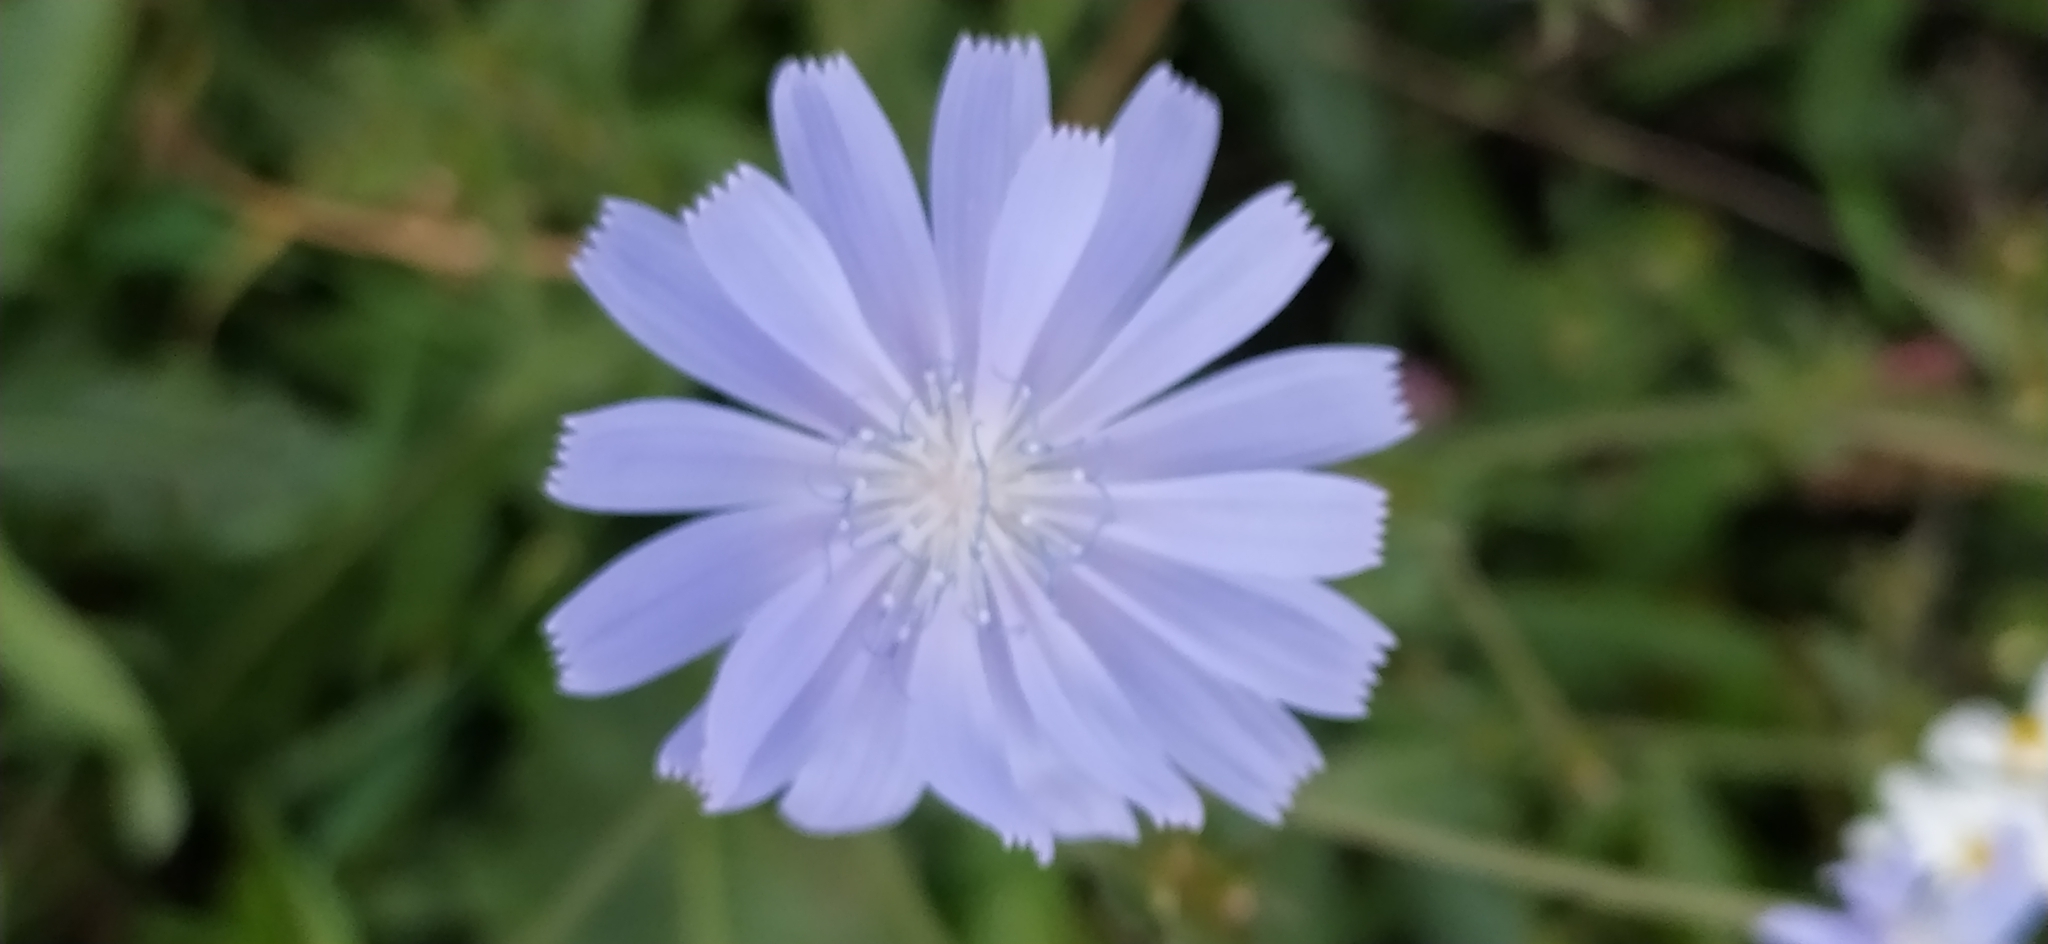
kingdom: Plantae
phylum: Tracheophyta
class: Magnoliopsida
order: Asterales
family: Asteraceae
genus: Cichorium
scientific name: Cichorium intybus
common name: Chicory
